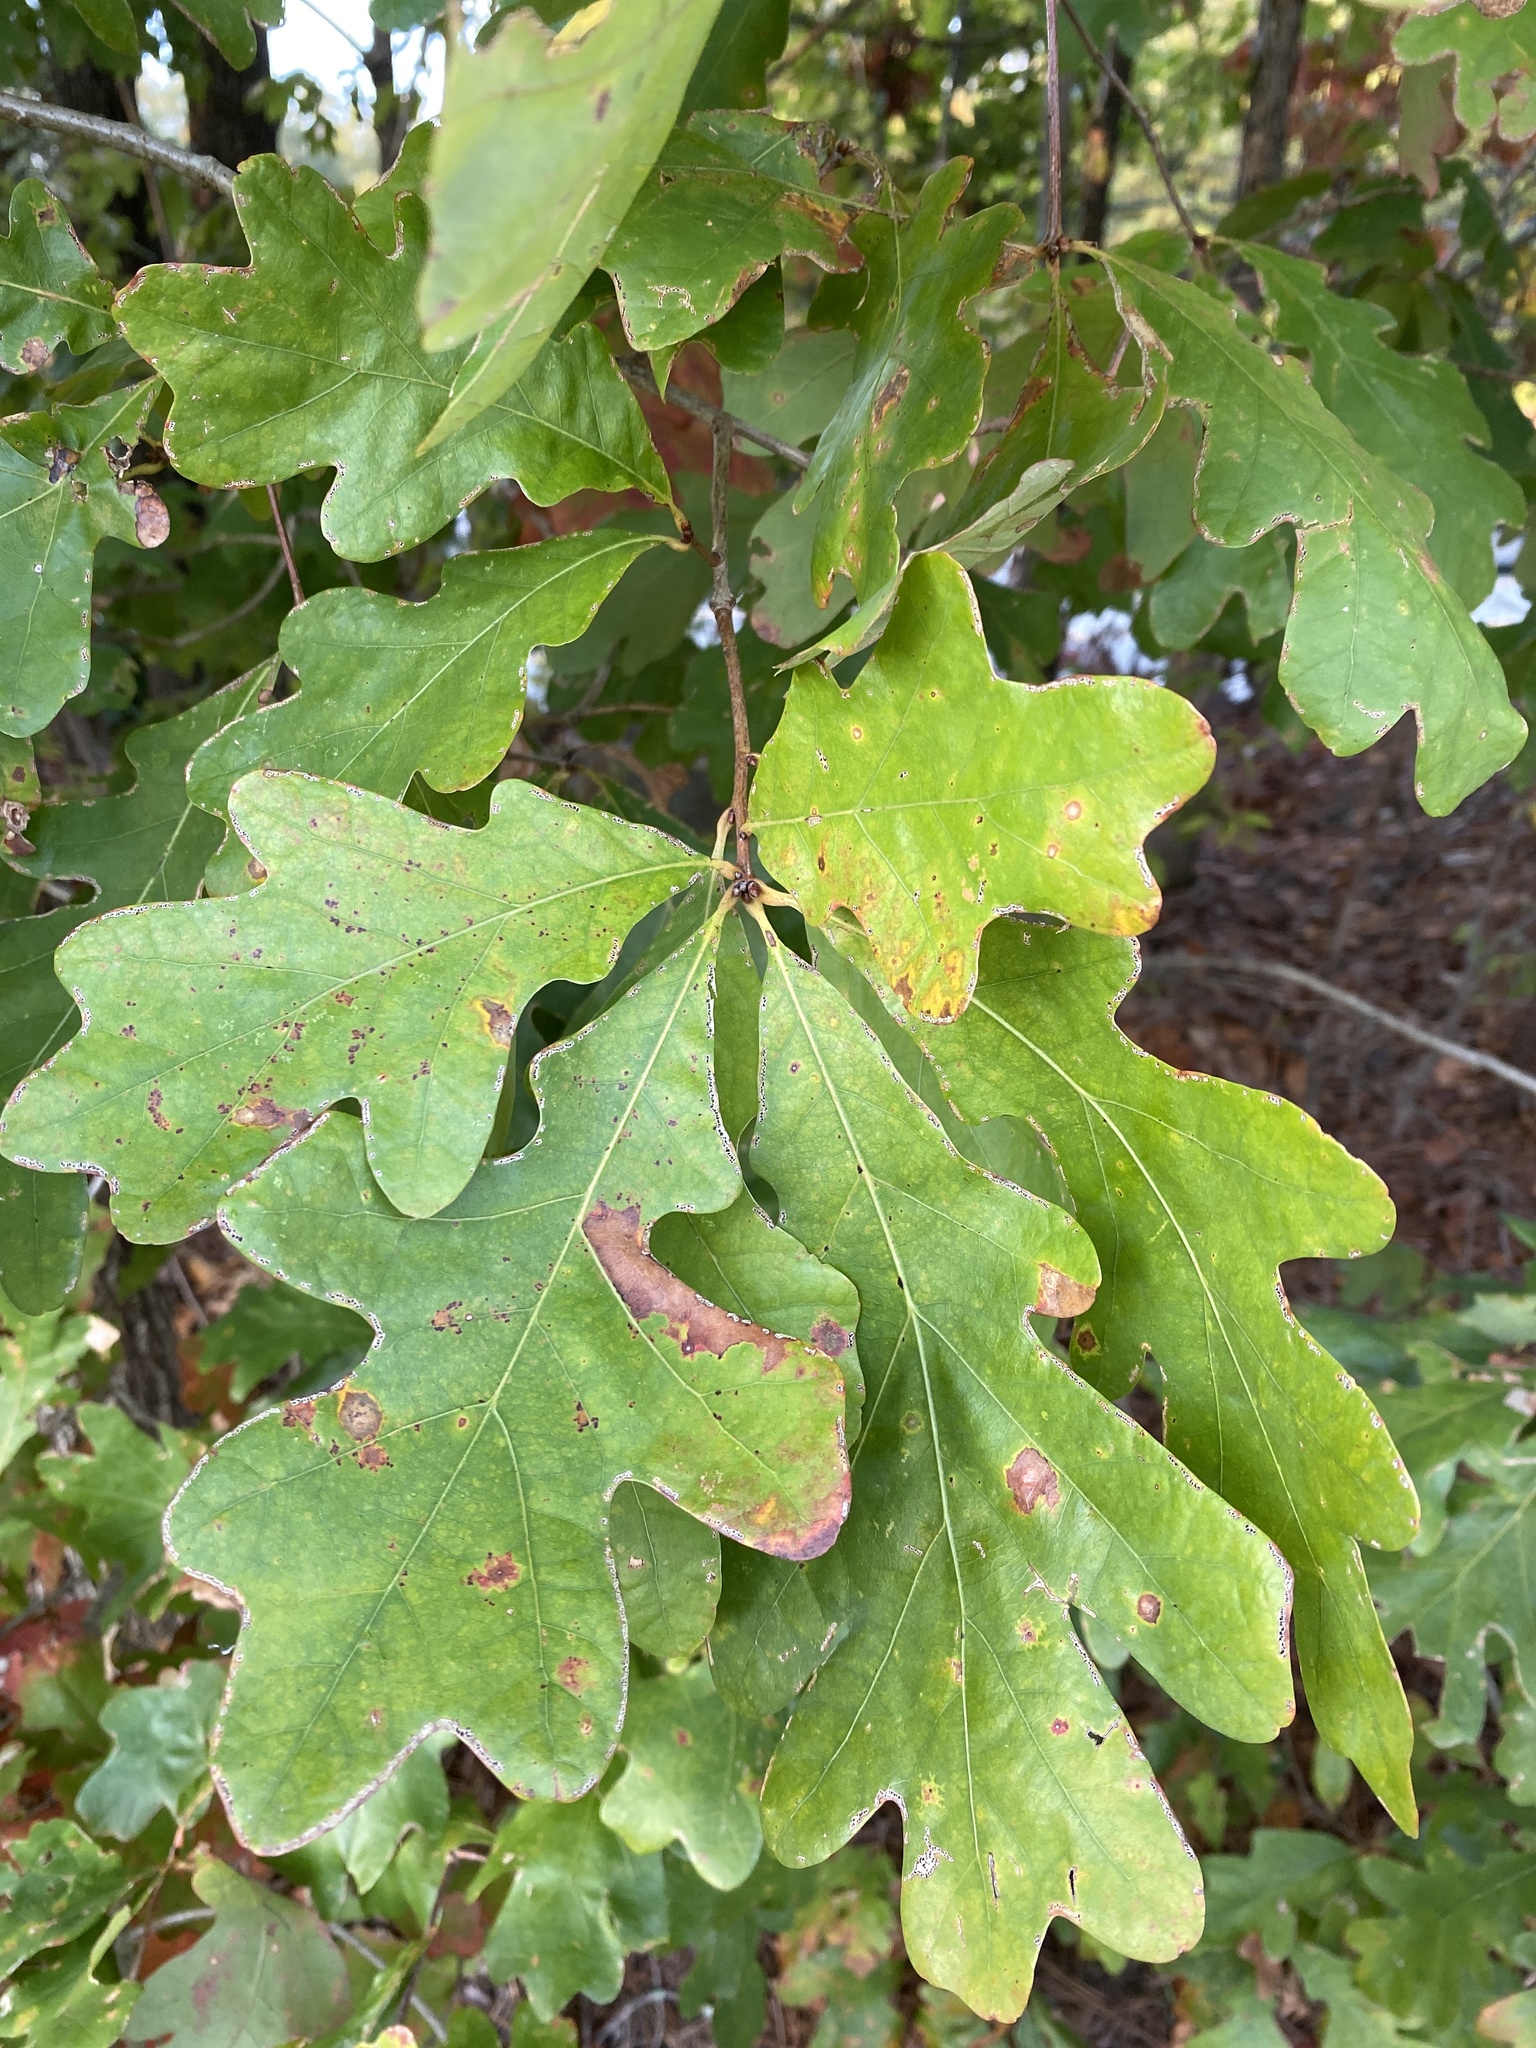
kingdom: Plantae
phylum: Tracheophyta
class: Magnoliopsida
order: Fagales
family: Fagaceae
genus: Quercus
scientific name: Quercus alba
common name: White oak
